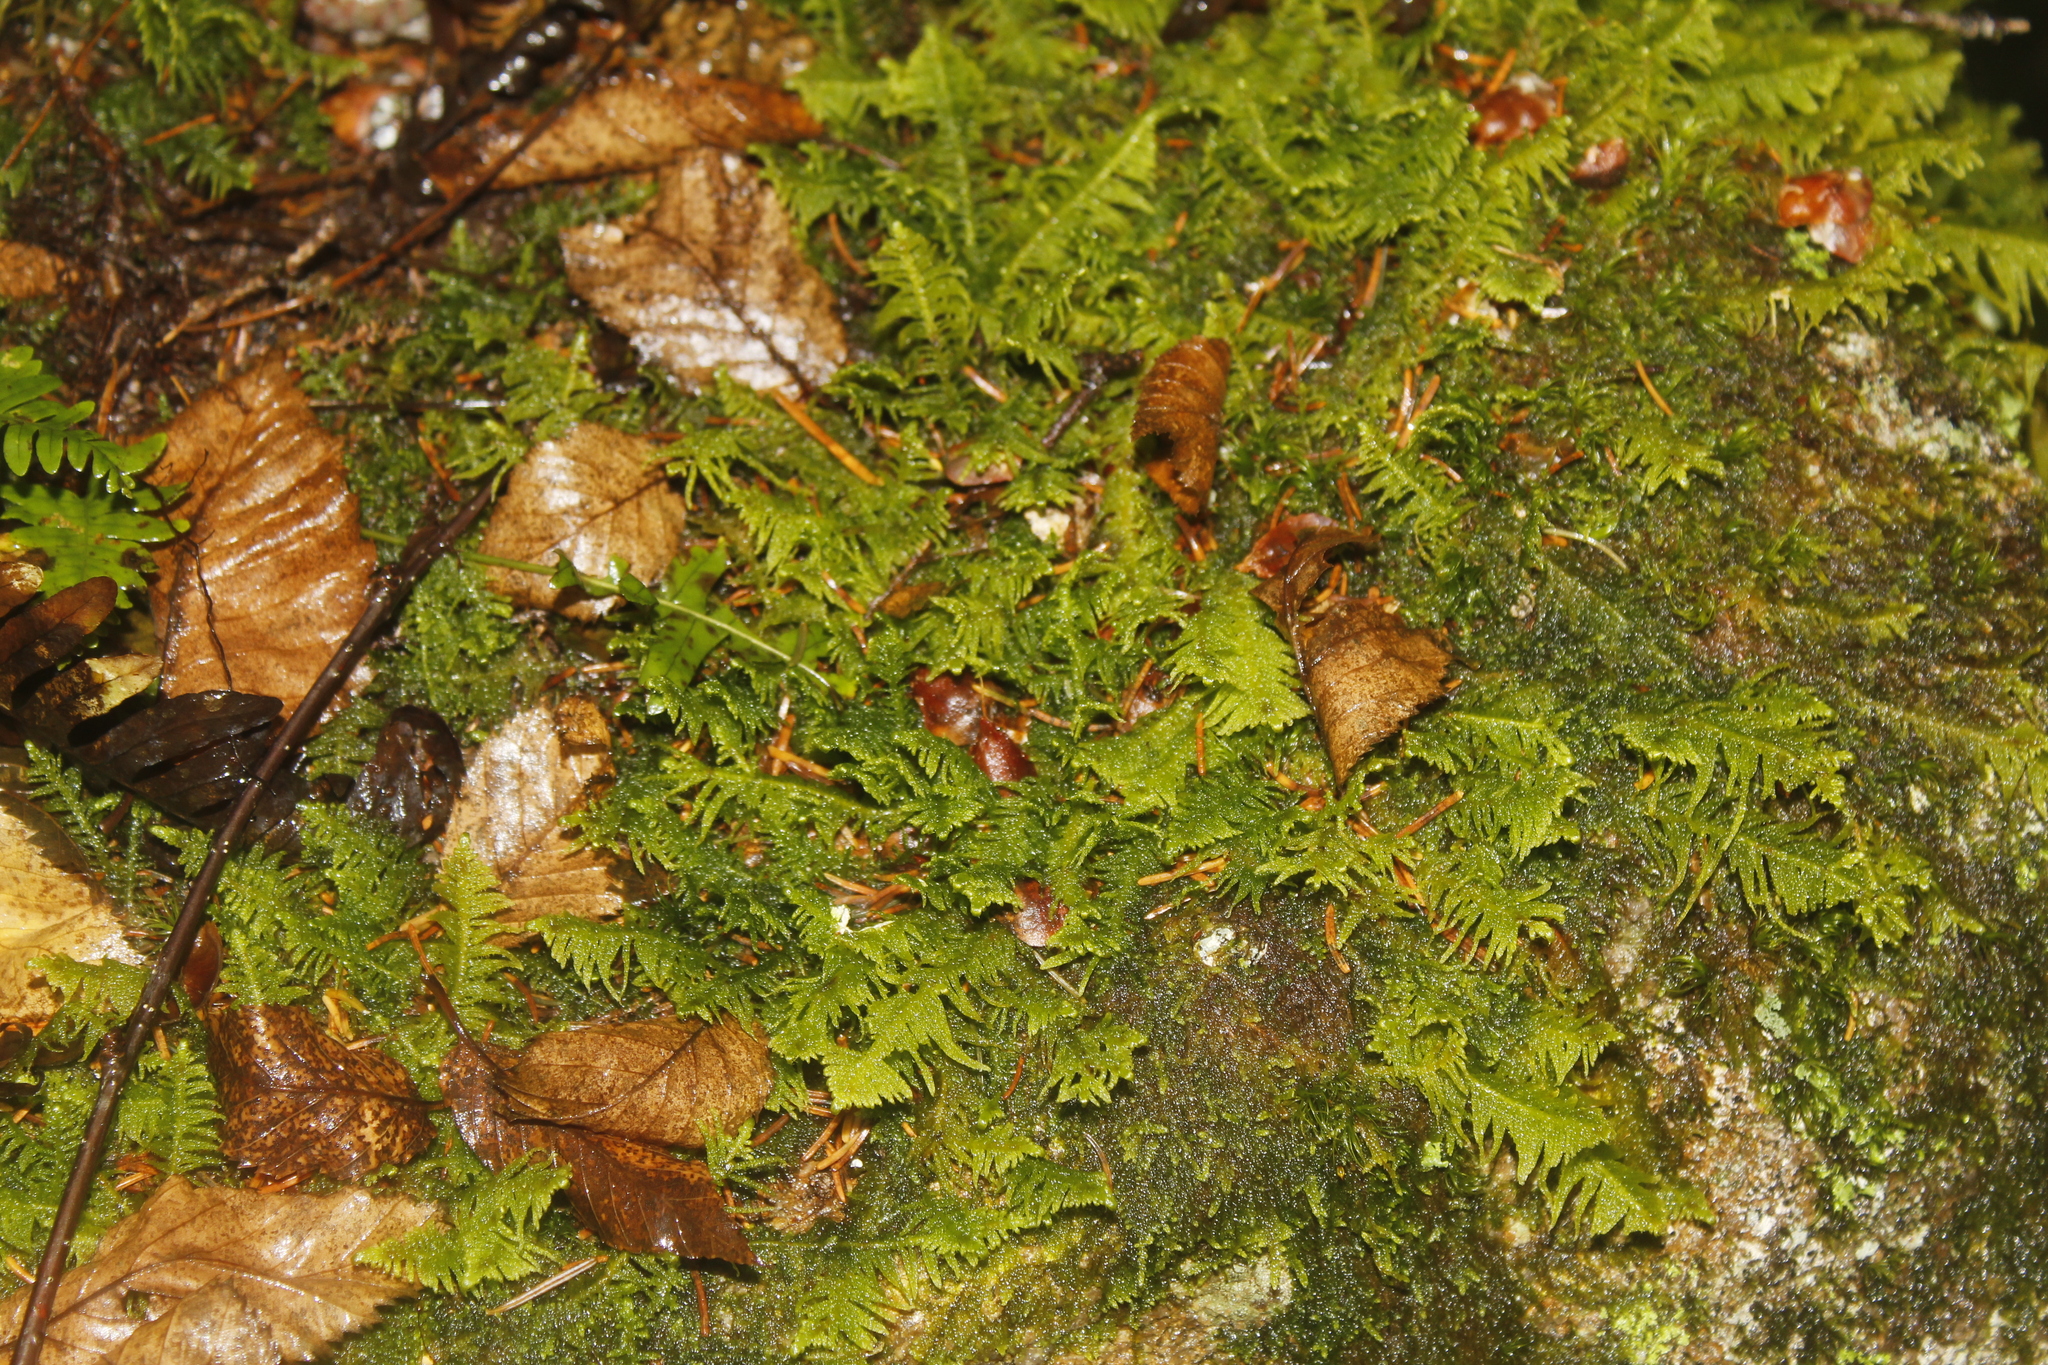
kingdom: Plantae
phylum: Bryophyta
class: Bryopsida
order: Hypnales
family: Pylaisiaceae
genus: Ptilium
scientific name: Ptilium crista-castrensis
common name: Knight's plume moss
